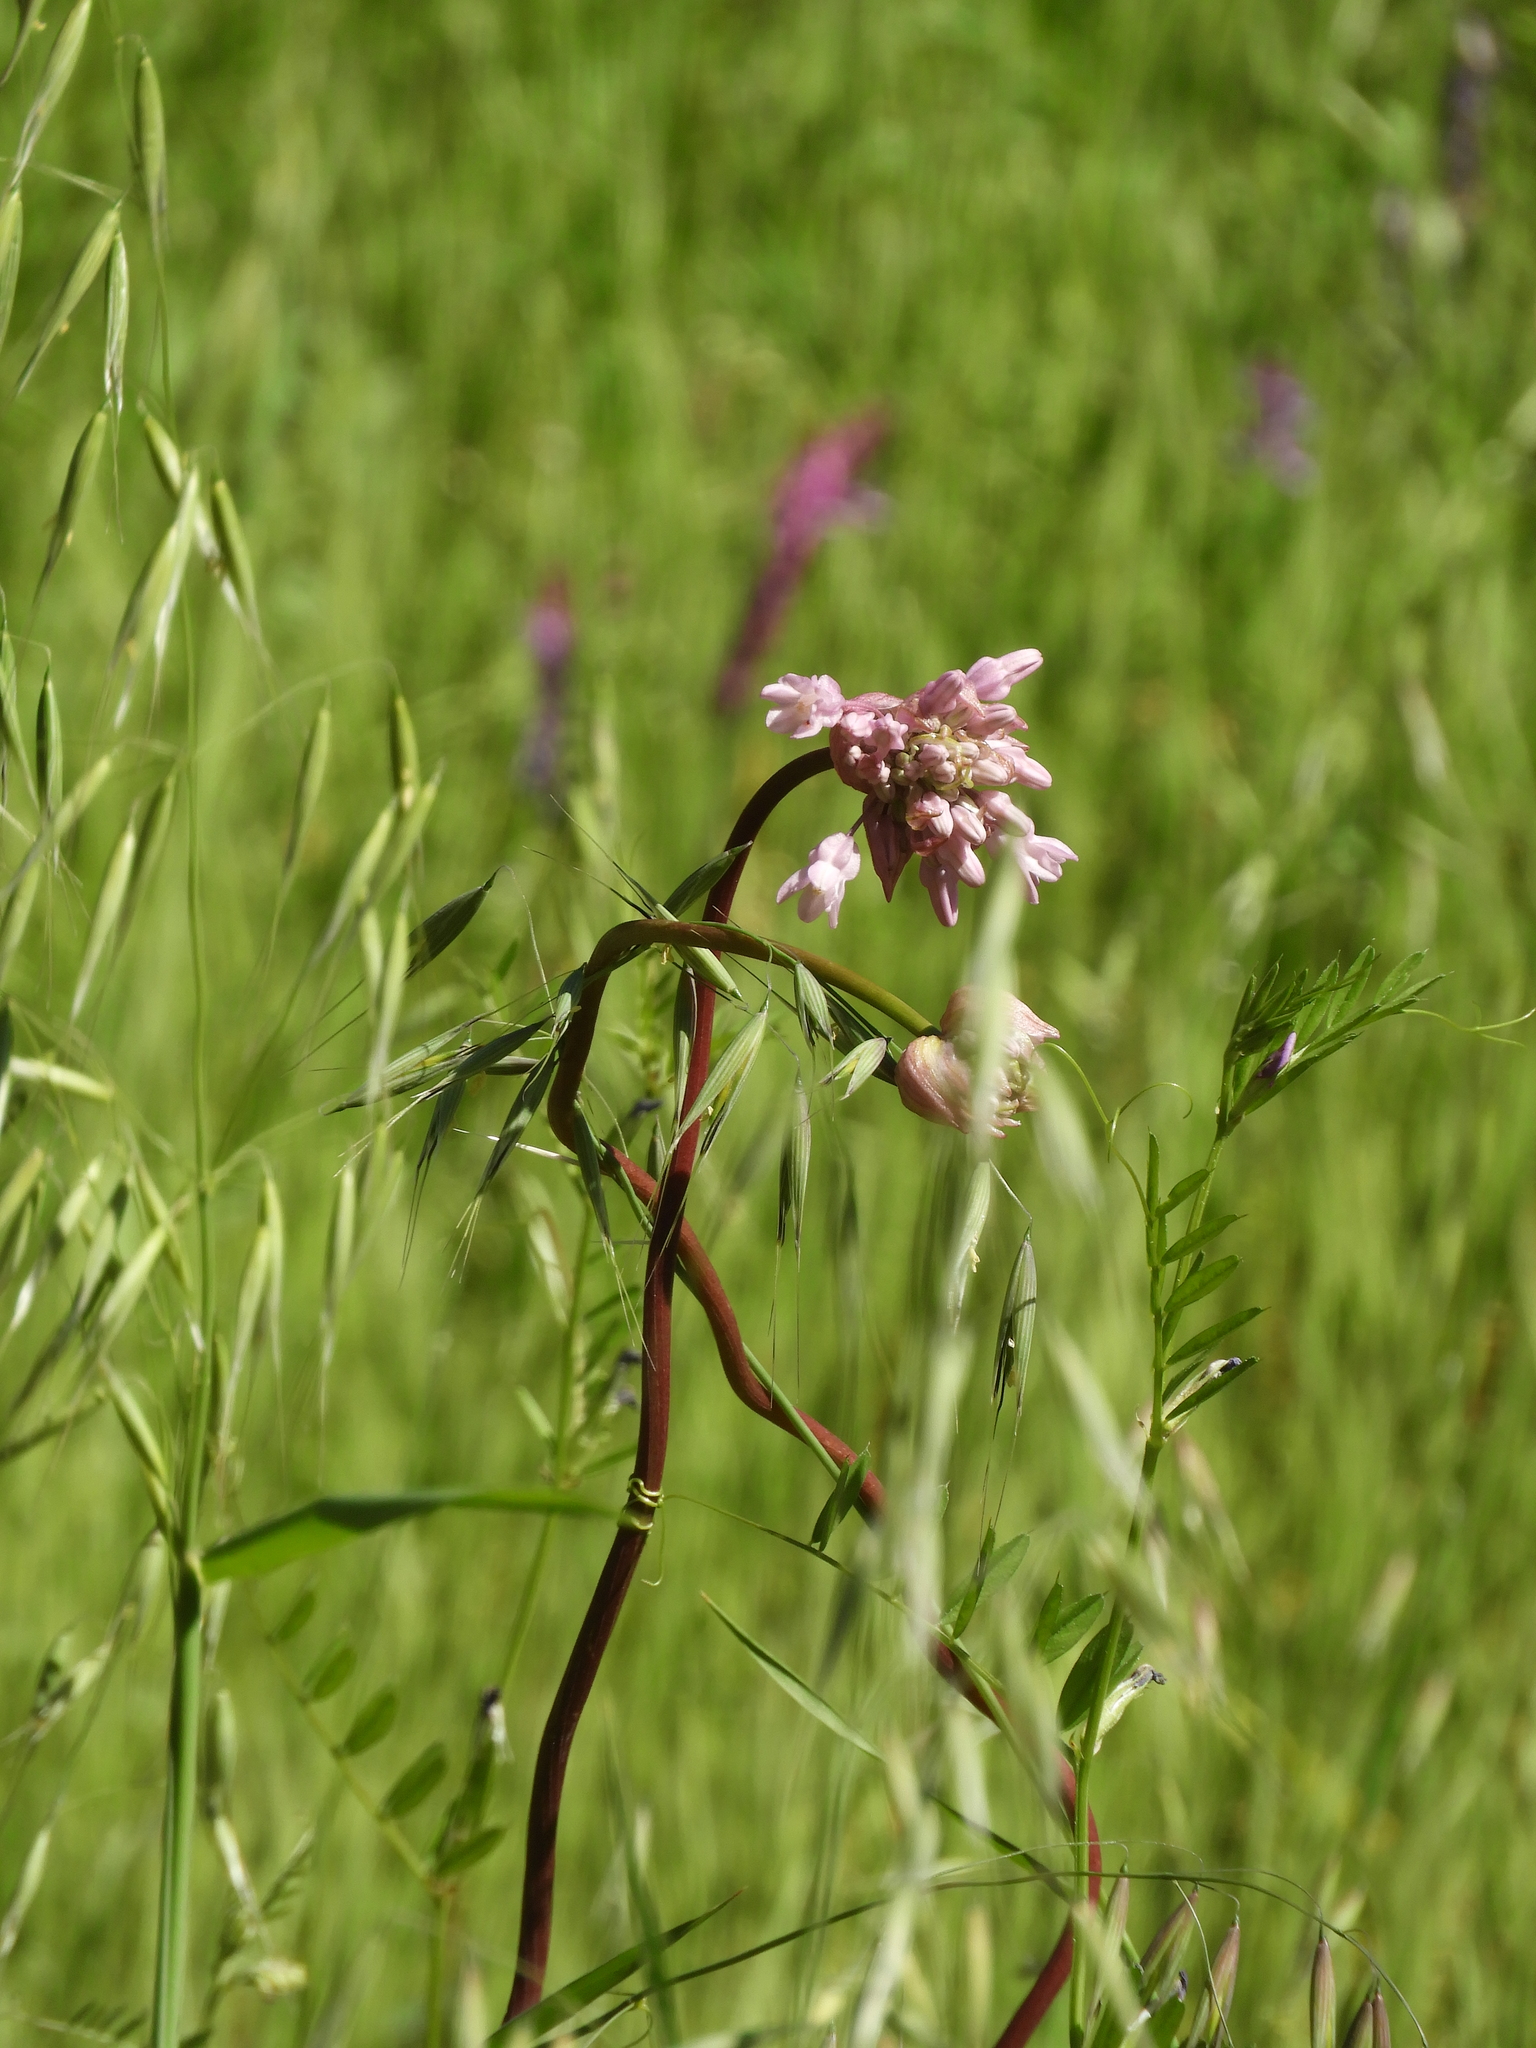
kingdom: Plantae
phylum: Tracheophyta
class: Liliopsida
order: Asparagales
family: Asparagaceae
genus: Dichelostemma
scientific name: Dichelostemma volubile
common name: Trining brodiaea
